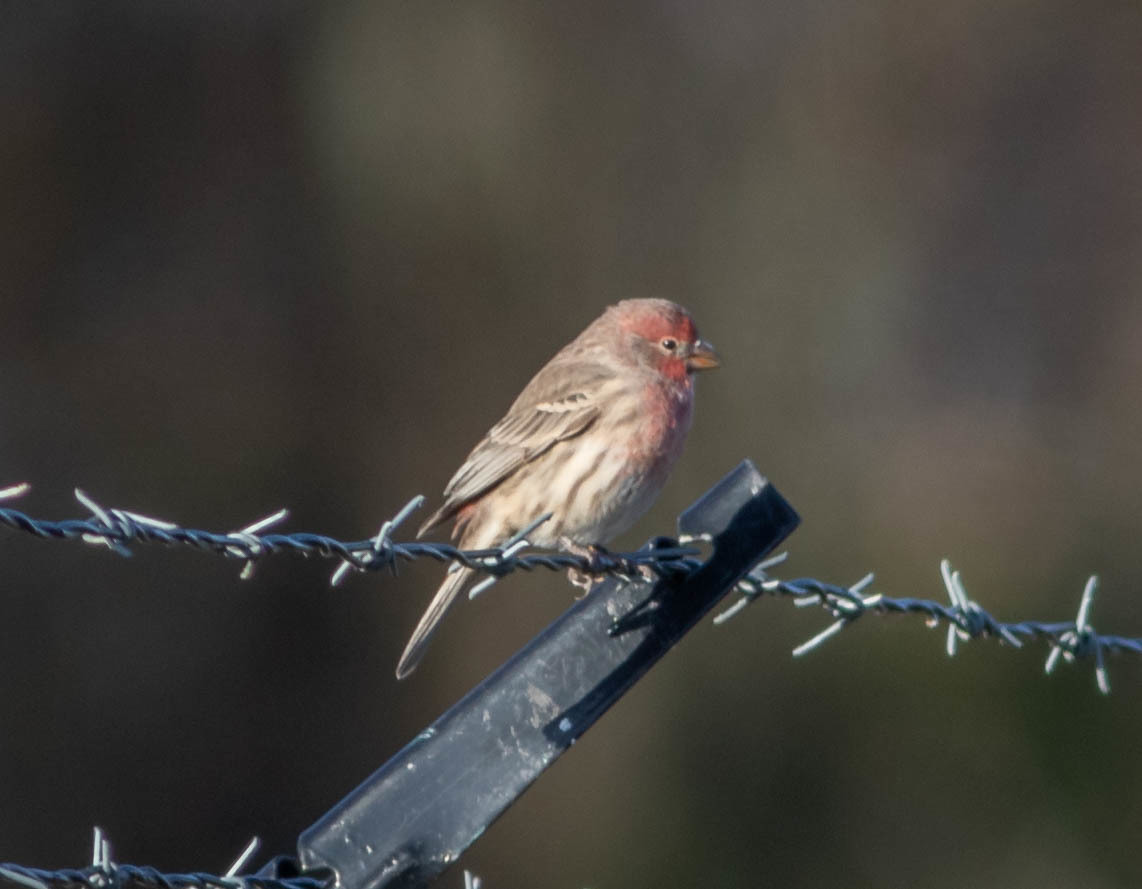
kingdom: Animalia
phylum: Chordata
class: Aves
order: Passeriformes
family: Fringillidae
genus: Haemorhous
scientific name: Haemorhous mexicanus
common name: House finch
